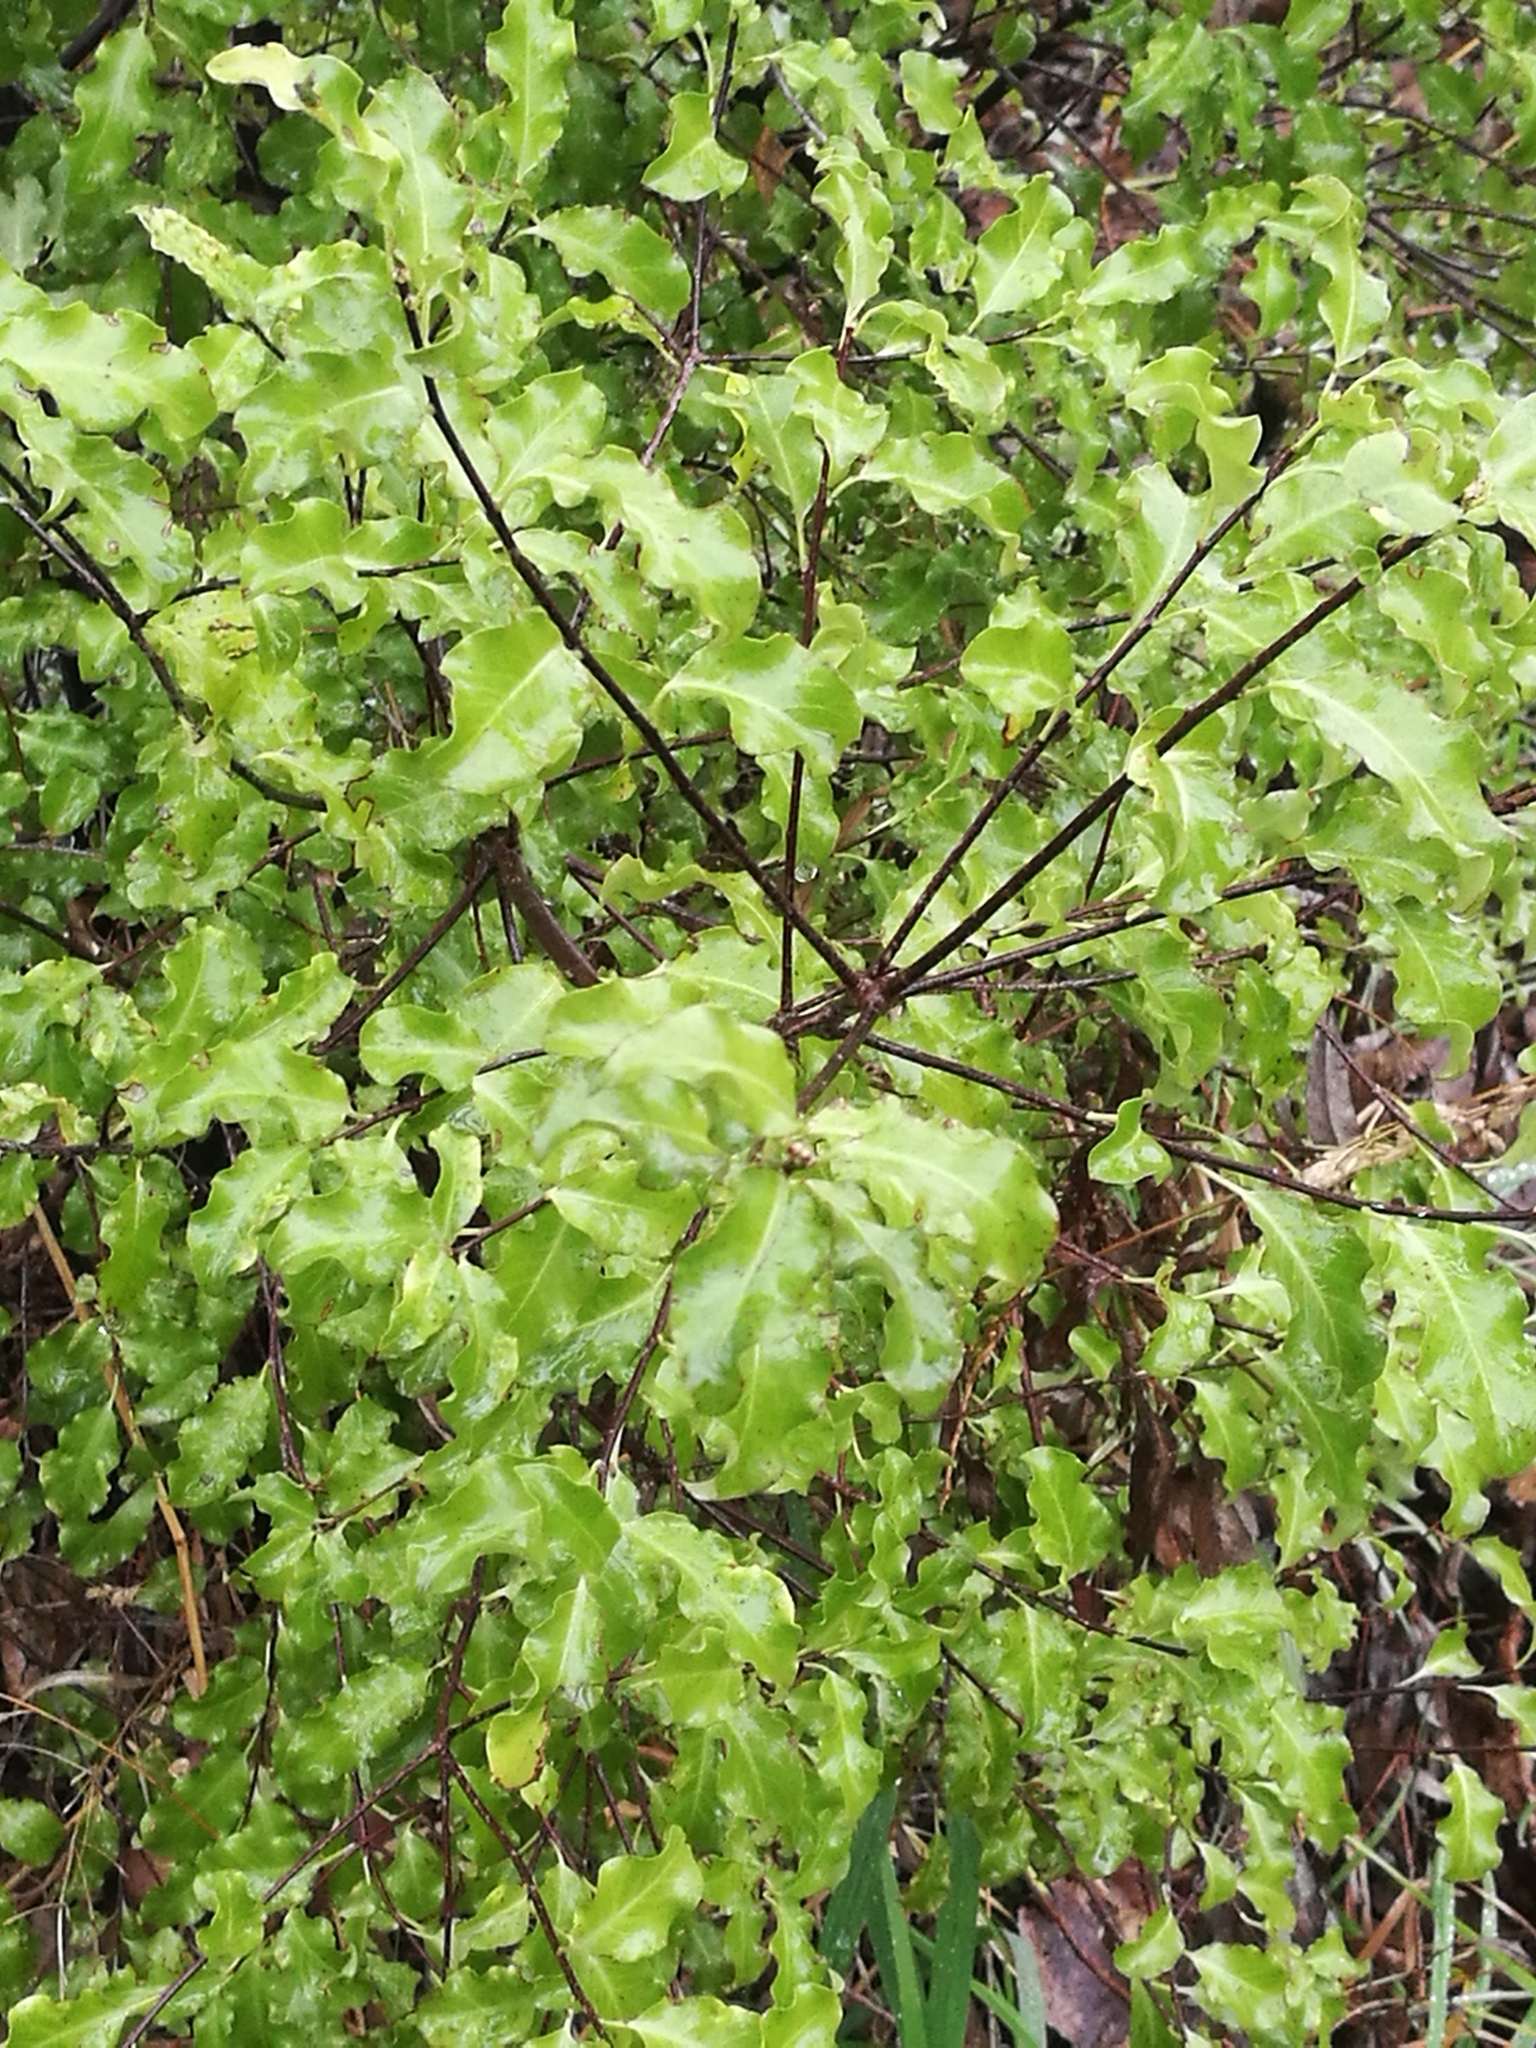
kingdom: Plantae
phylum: Tracheophyta
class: Magnoliopsida
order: Apiales
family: Pittosporaceae
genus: Pittosporum
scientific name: Pittosporum tenuifolium
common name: Kohuhu
